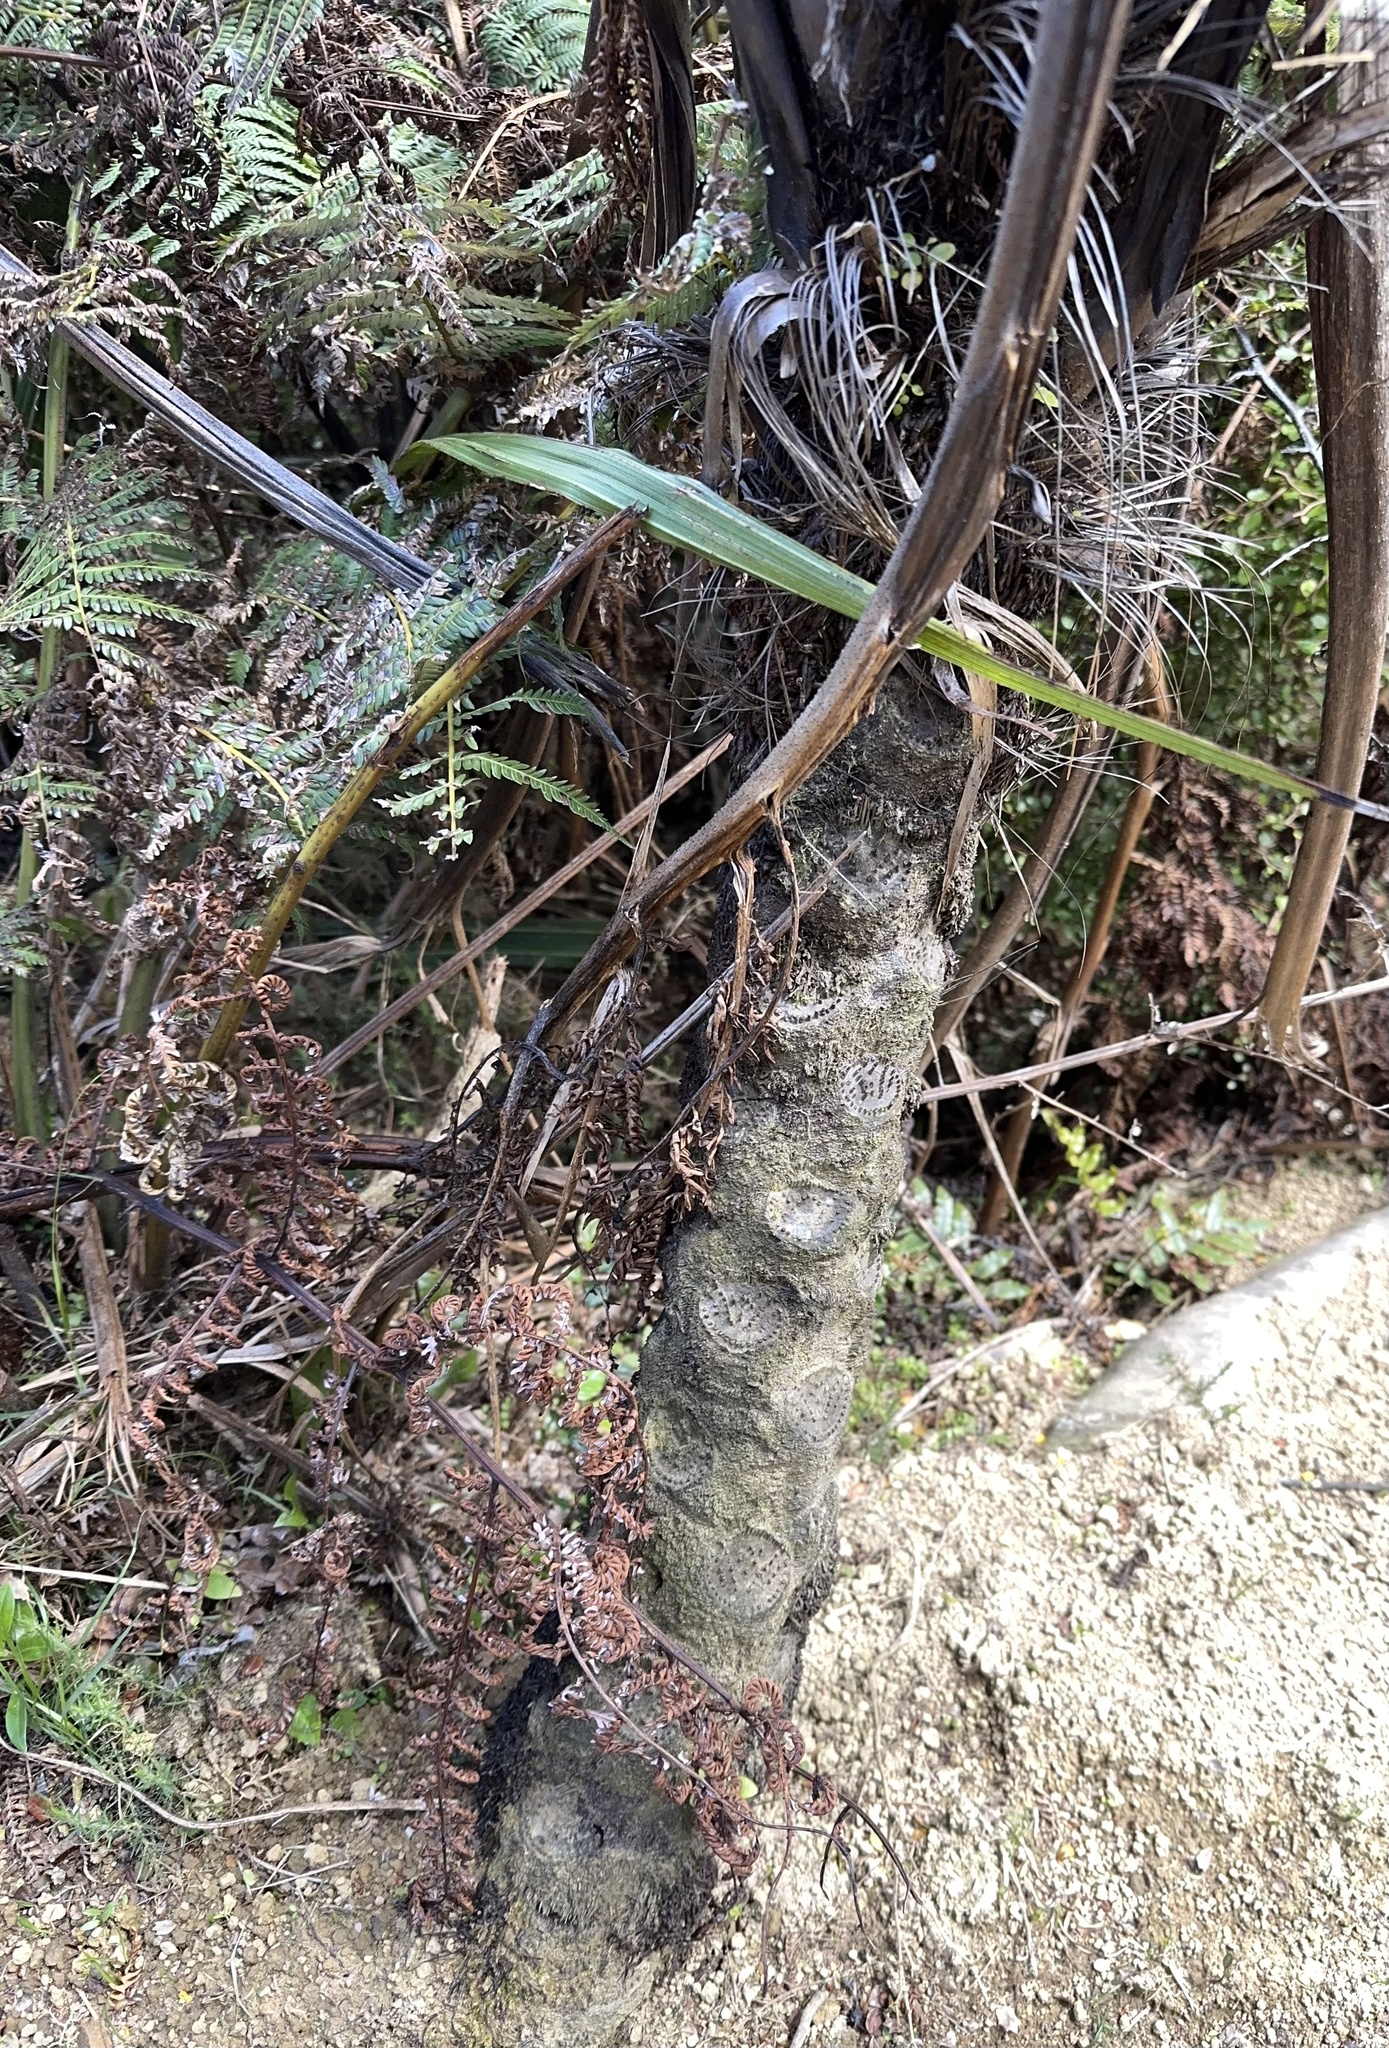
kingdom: Plantae
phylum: Tracheophyta
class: Polypodiopsida
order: Cyatheales
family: Cyatheaceae
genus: Sphaeropteris
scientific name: Sphaeropteris medullaris
